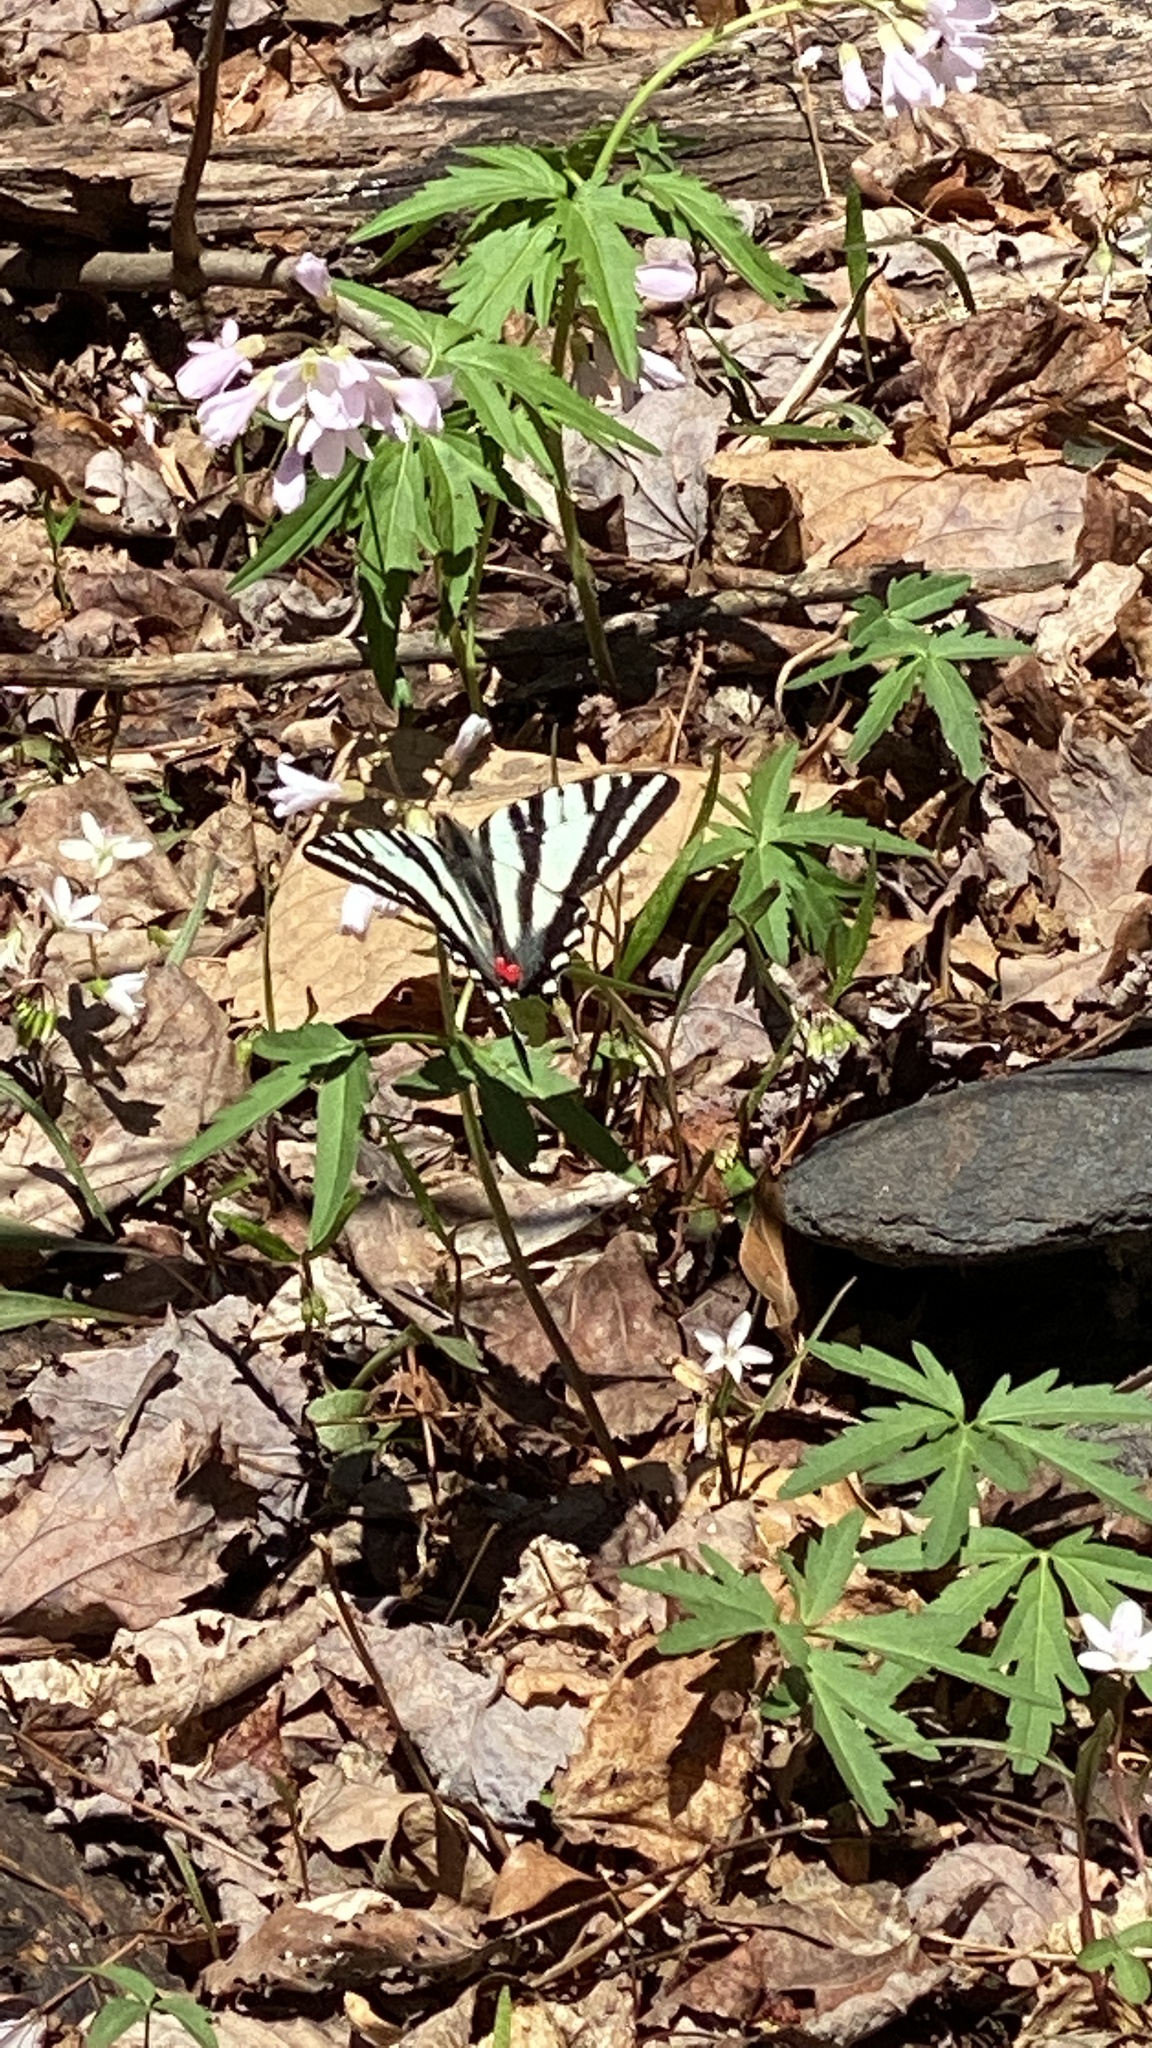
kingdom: Animalia
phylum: Arthropoda
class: Insecta
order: Lepidoptera
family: Papilionidae
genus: Protographium
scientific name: Protographium marcellus
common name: Zebra swallowtail
